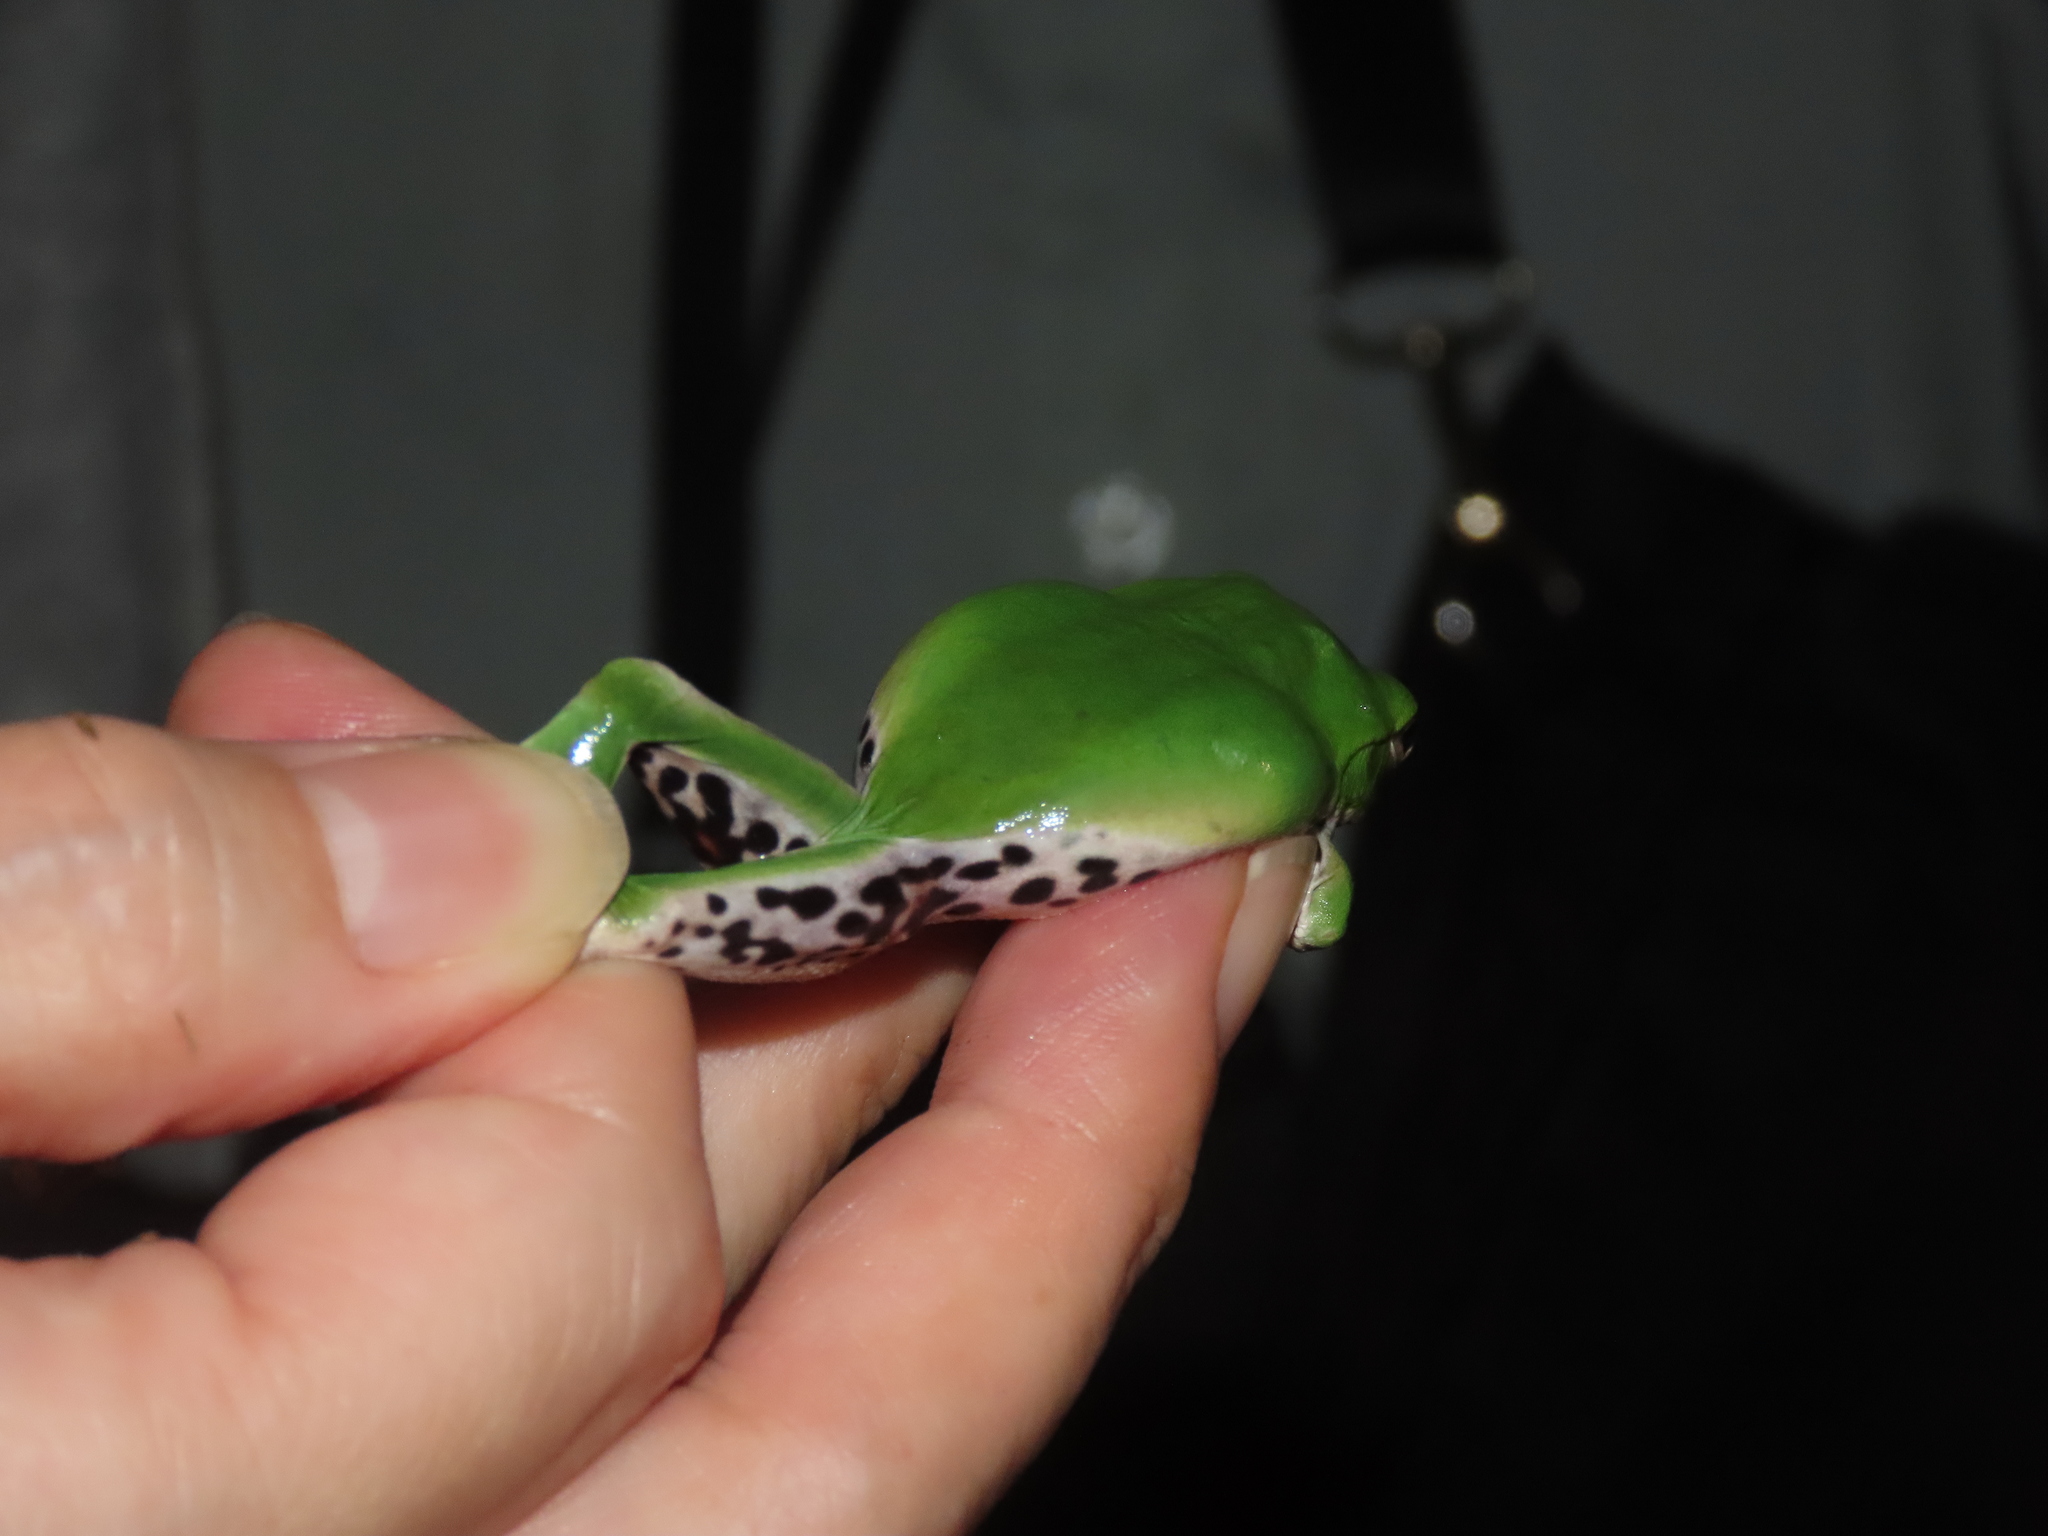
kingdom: Animalia
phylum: Chordata
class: Amphibia
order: Anura
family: Rhacophoridae
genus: Zhangixalus
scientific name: Zhangixalus moltrechti
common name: Moltrecht's treefrog
